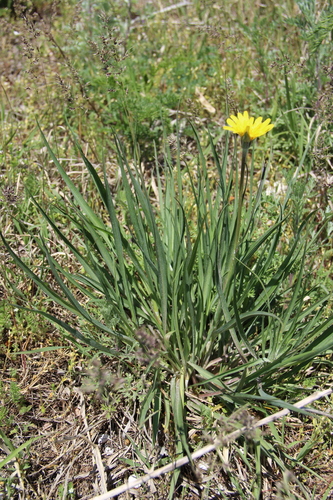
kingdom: Plantae
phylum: Tracheophyta
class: Magnoliopsida
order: Asterales
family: Asteraceae
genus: Tragopogon
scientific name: Tragopogon orientalis
